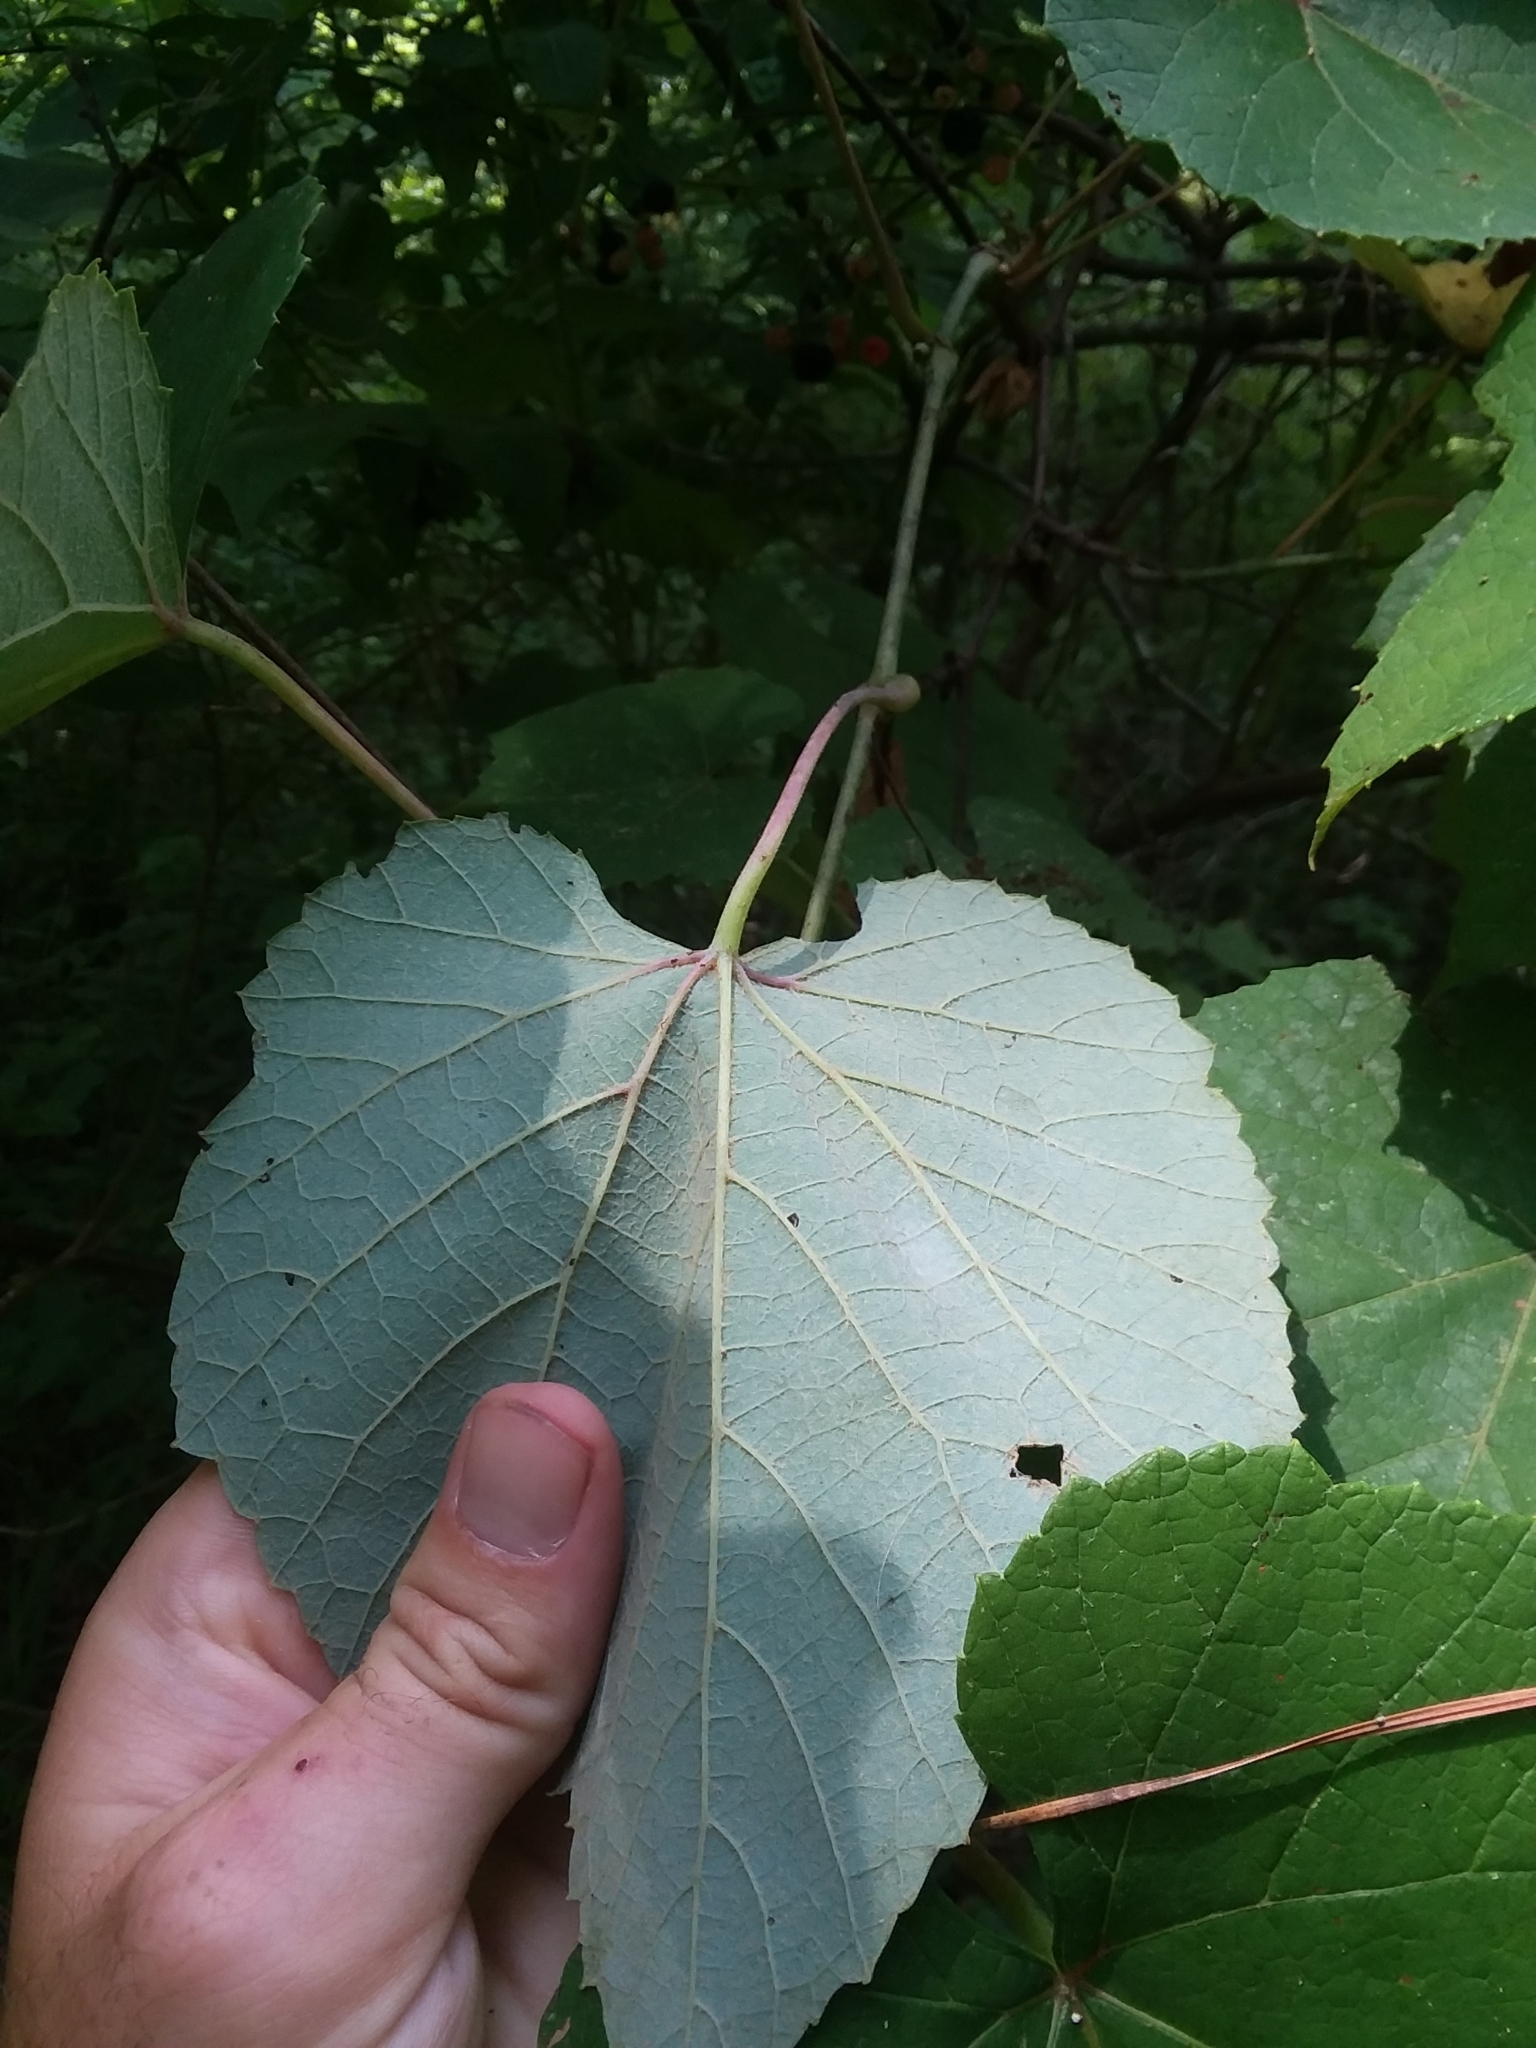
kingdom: Plantae
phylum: Tracheophyta
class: Magnoliopsida
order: Vitales
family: Vitaceae
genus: Vitis
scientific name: Vitis aestivalis
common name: Pigeon grape
